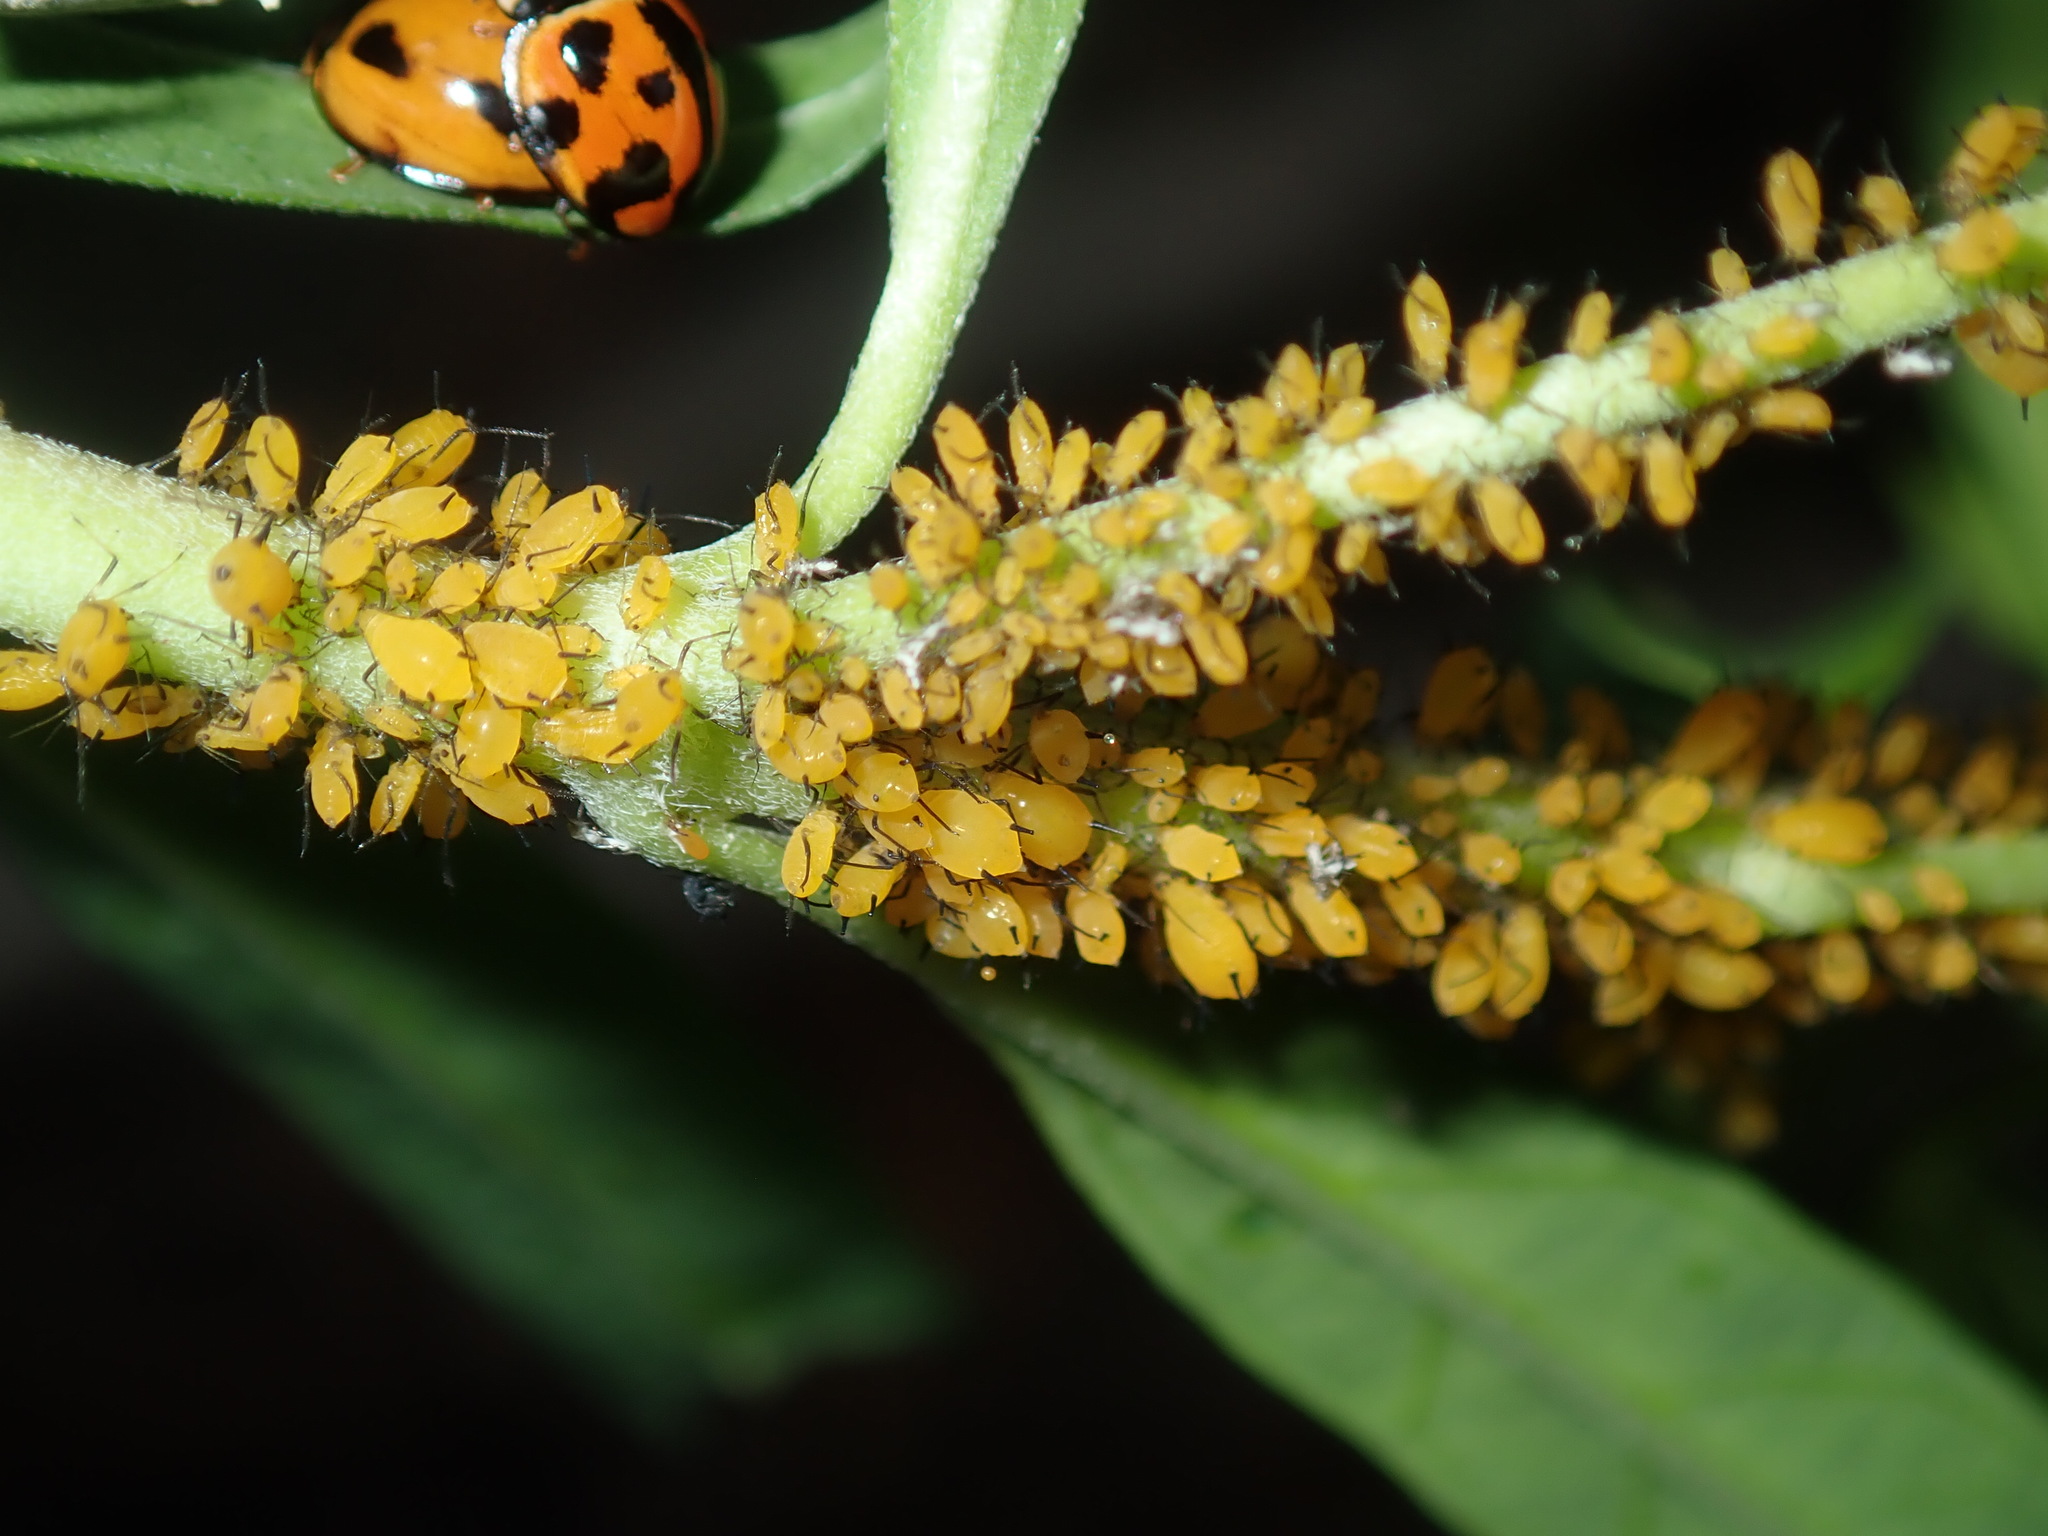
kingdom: Animalia
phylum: Arthropoda
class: Insecta
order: Hemiptera
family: Aphididae
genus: Aphis
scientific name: Aphis nerii
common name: Oleander aphid
